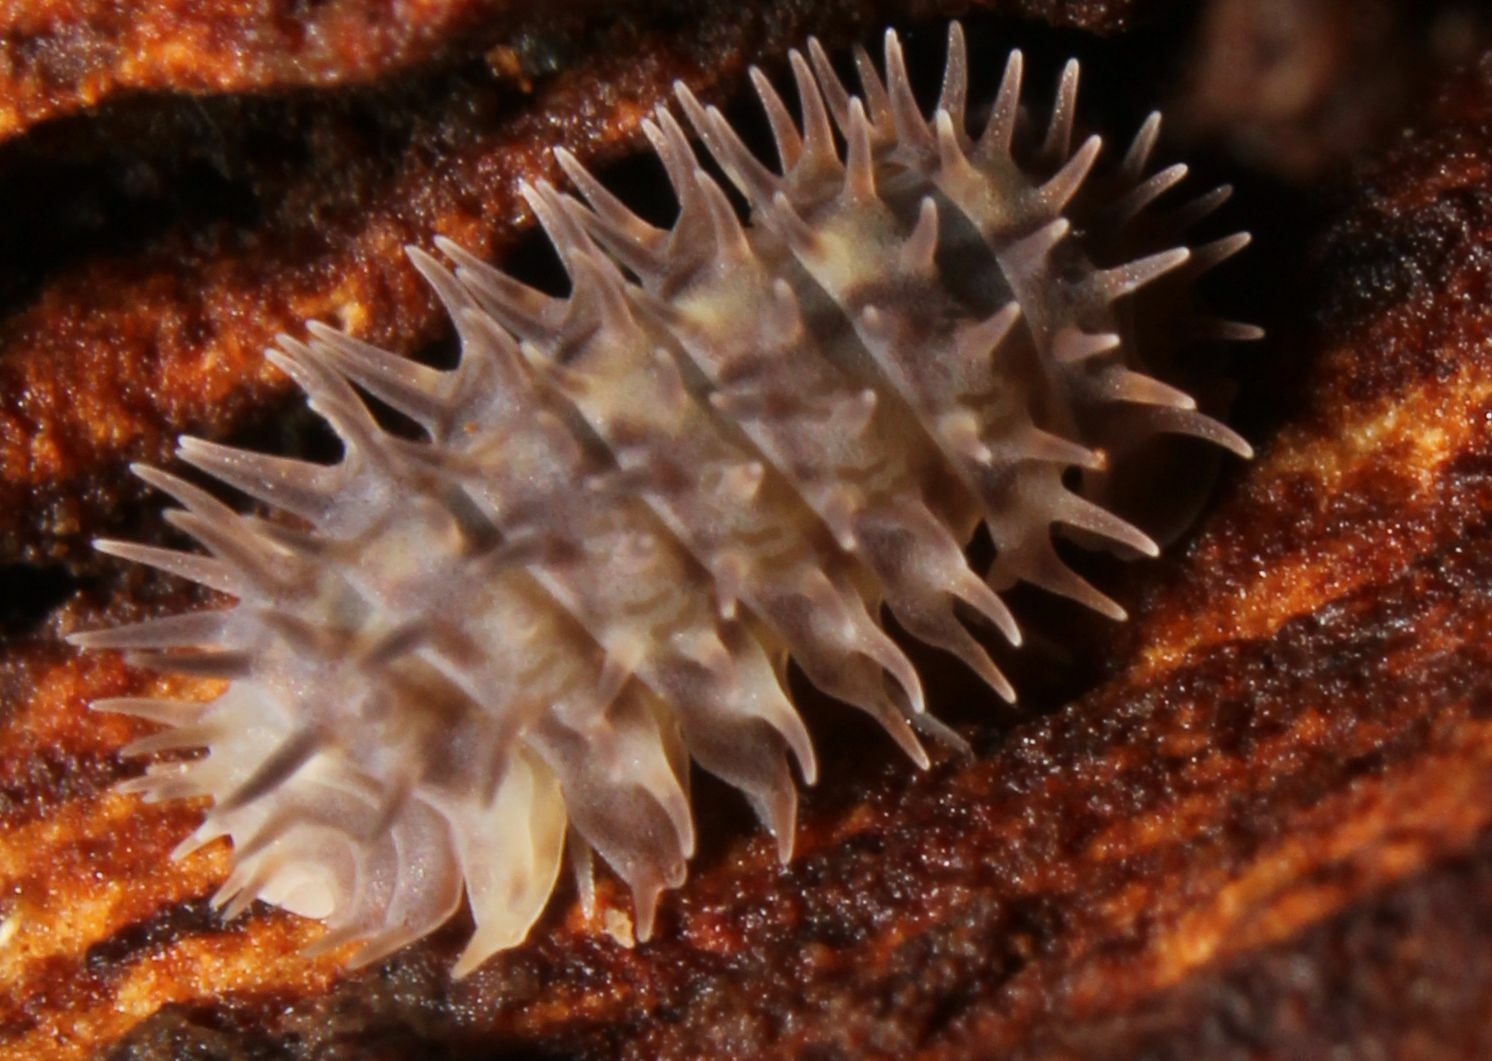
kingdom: Animalia
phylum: Arthropoda
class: Malacostraca
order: Isopoda
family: Armadillidae
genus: Pseudolaureola
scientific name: Pseudolaureola wilsmorei
